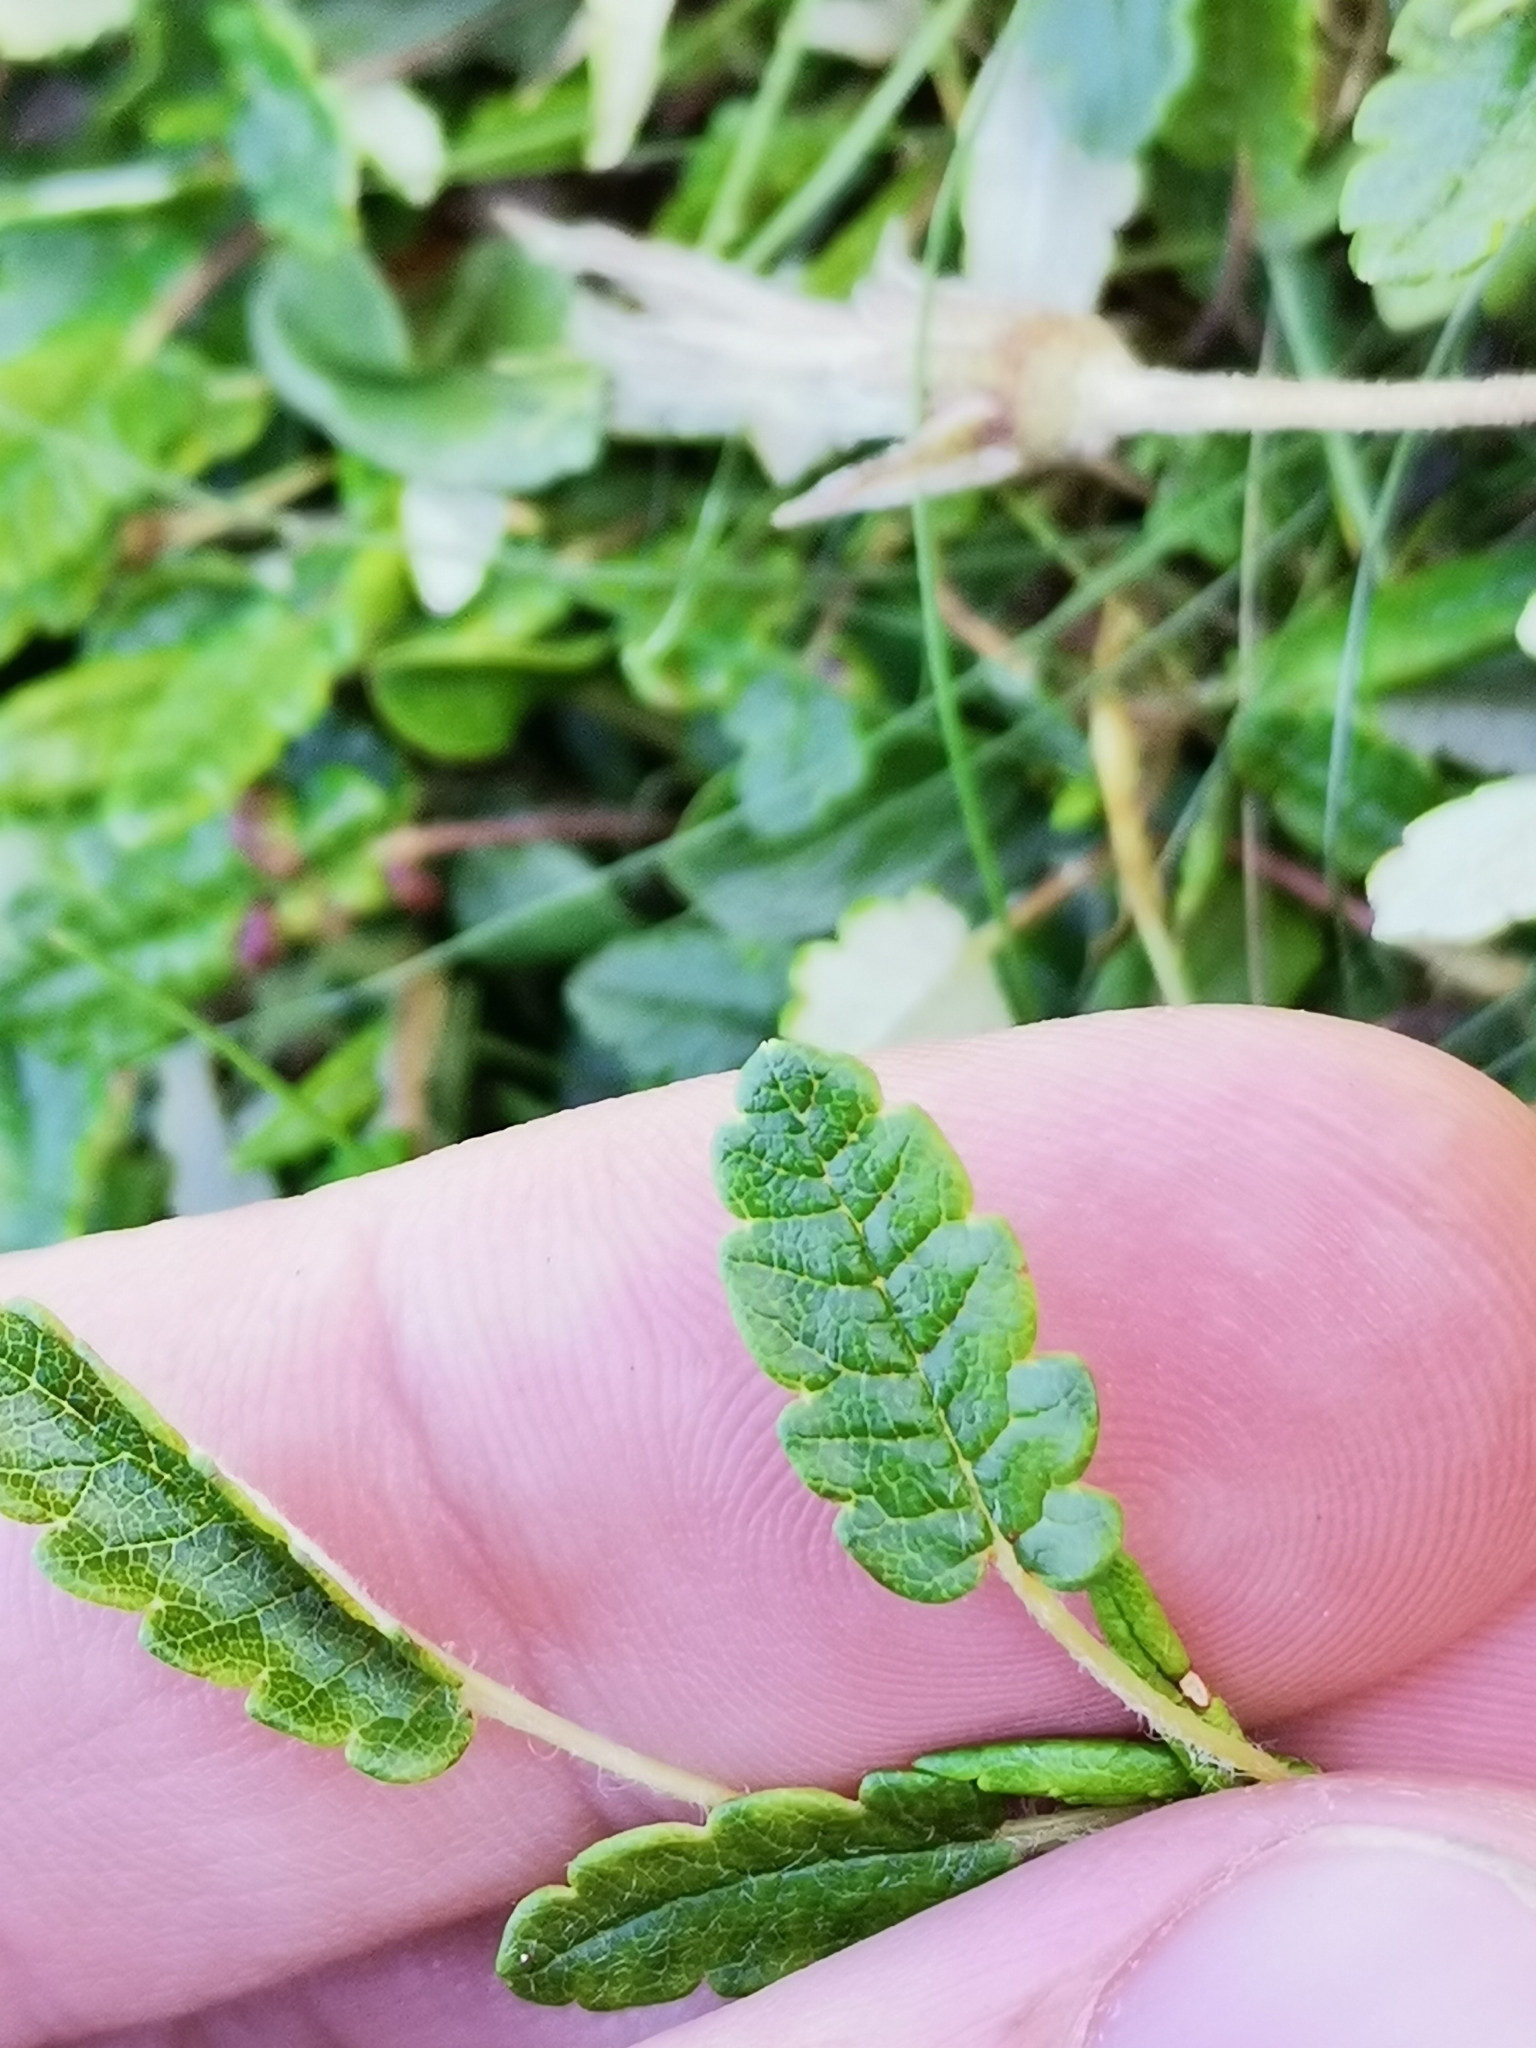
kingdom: Plantae
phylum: Tracheophyta
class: Magnoliopsida
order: Rosales
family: Rosaceae
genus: Dryas
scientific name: Dryas octopetala
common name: Eight-petal mountain-avens
